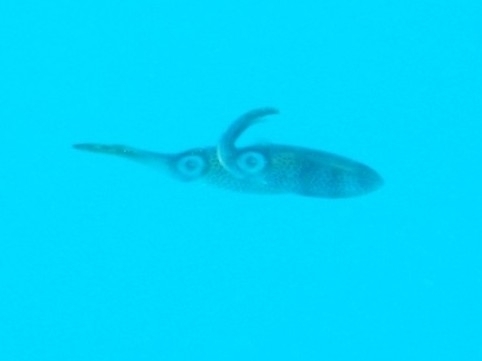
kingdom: Animalia
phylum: Mollusca
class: Cephalopoda
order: Myopsida
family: Loliginidae
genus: Sepioteuthis
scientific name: Sepioteuthis sepioidea
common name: Caribbean reef squid
